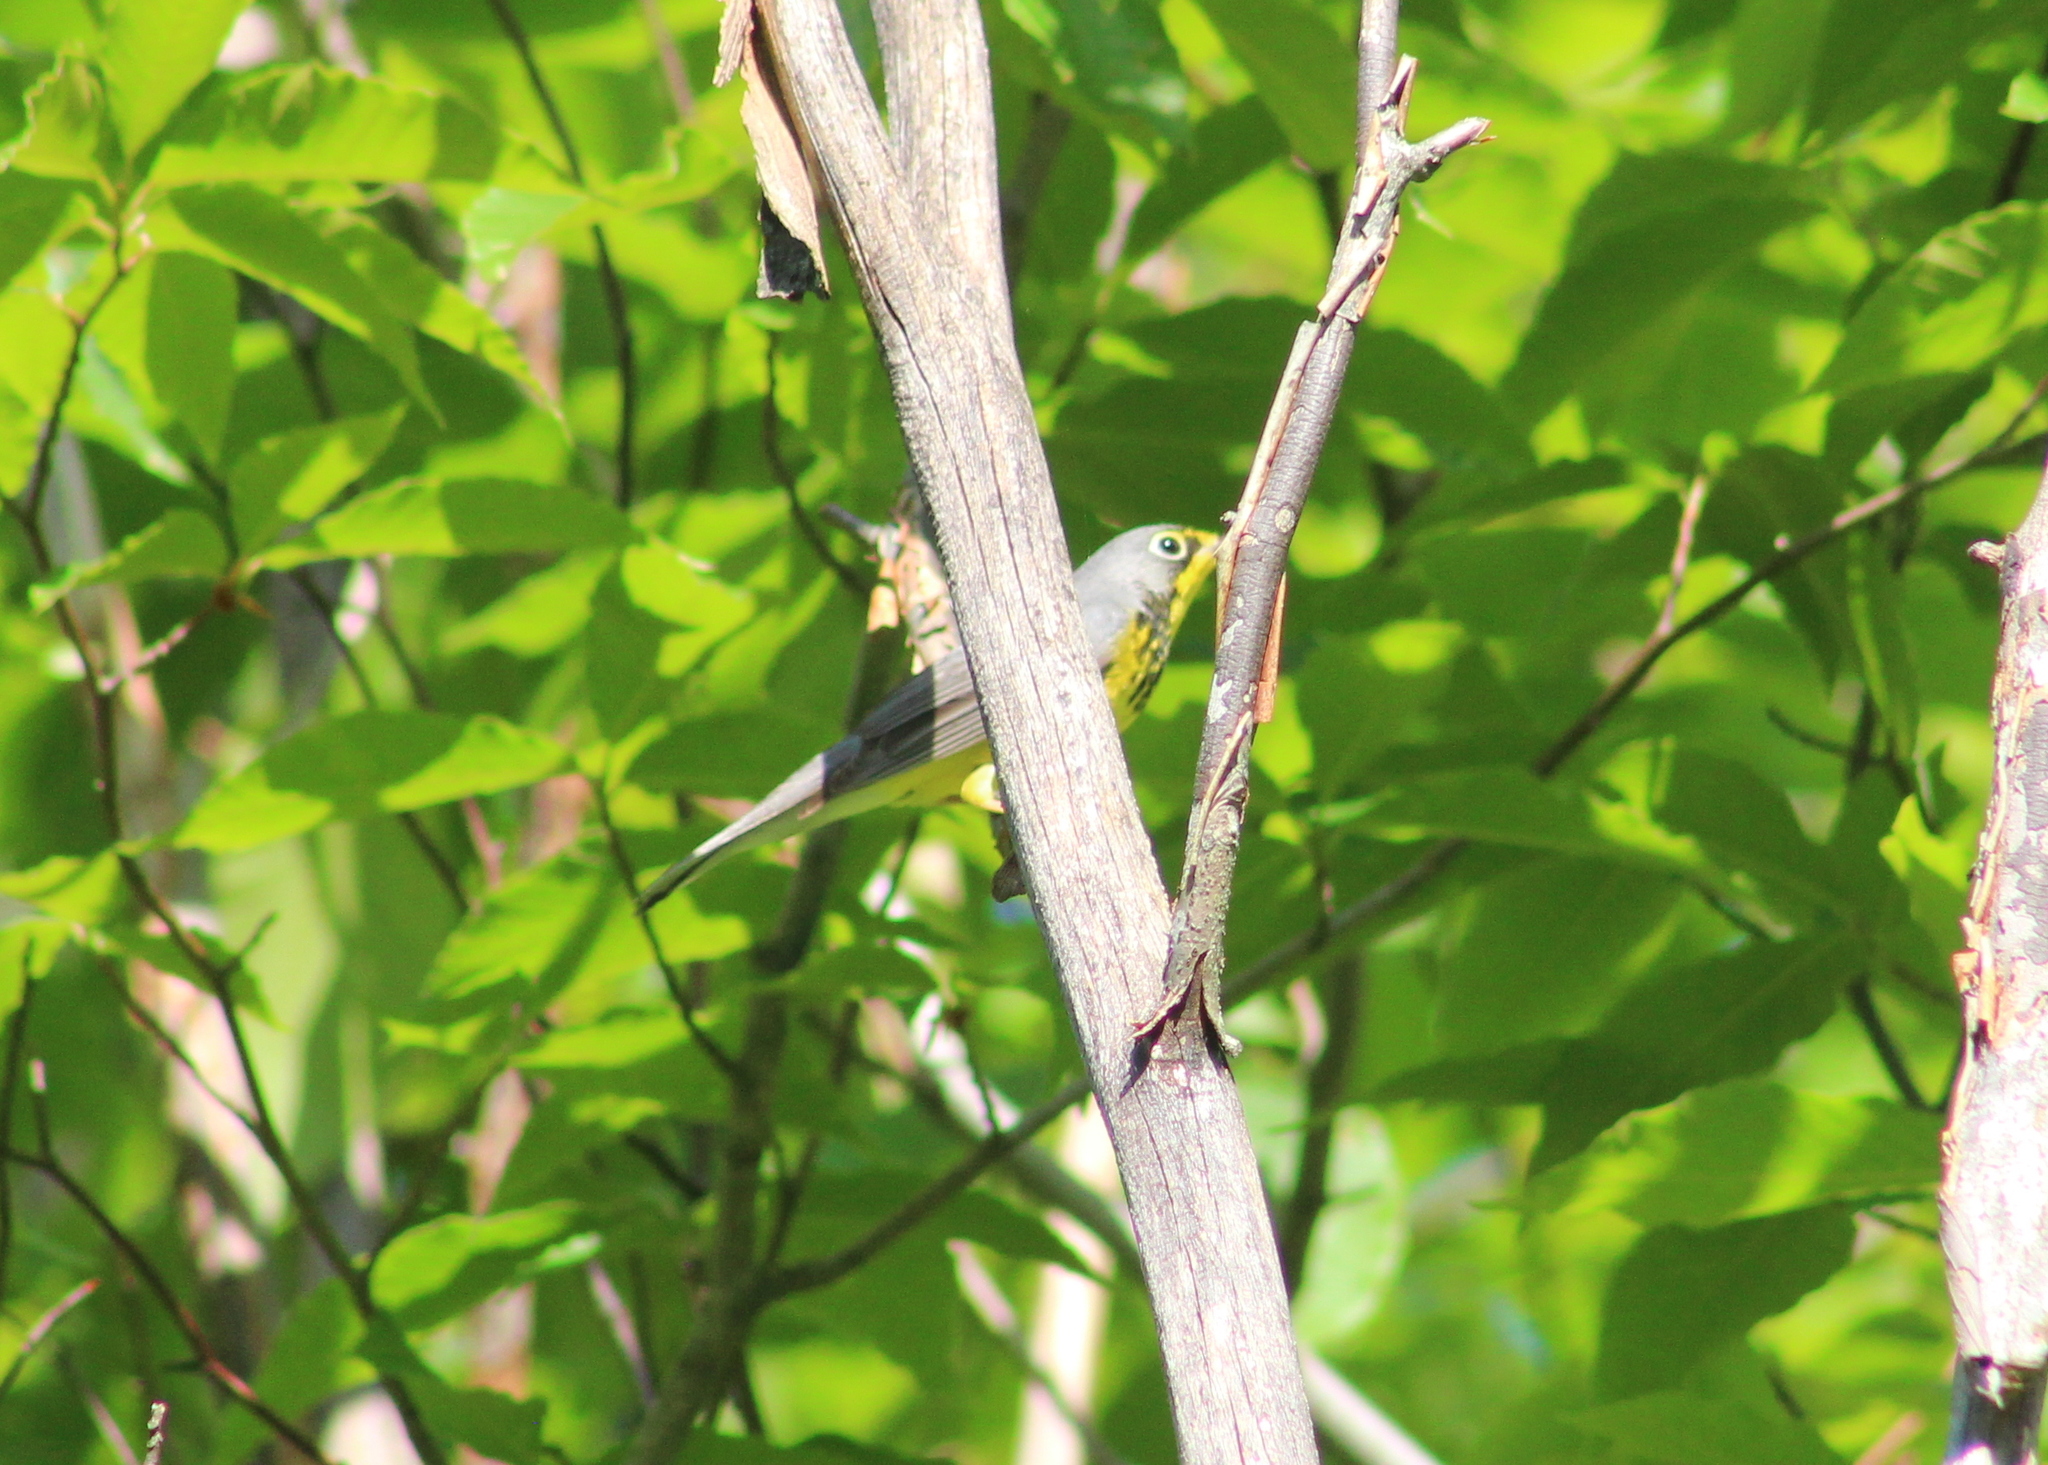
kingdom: Animalia
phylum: Chordata
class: Aves
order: Passeriformes
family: Parulidae
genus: Cardellina
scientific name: Cardellina canadensis
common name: Canada warbler
